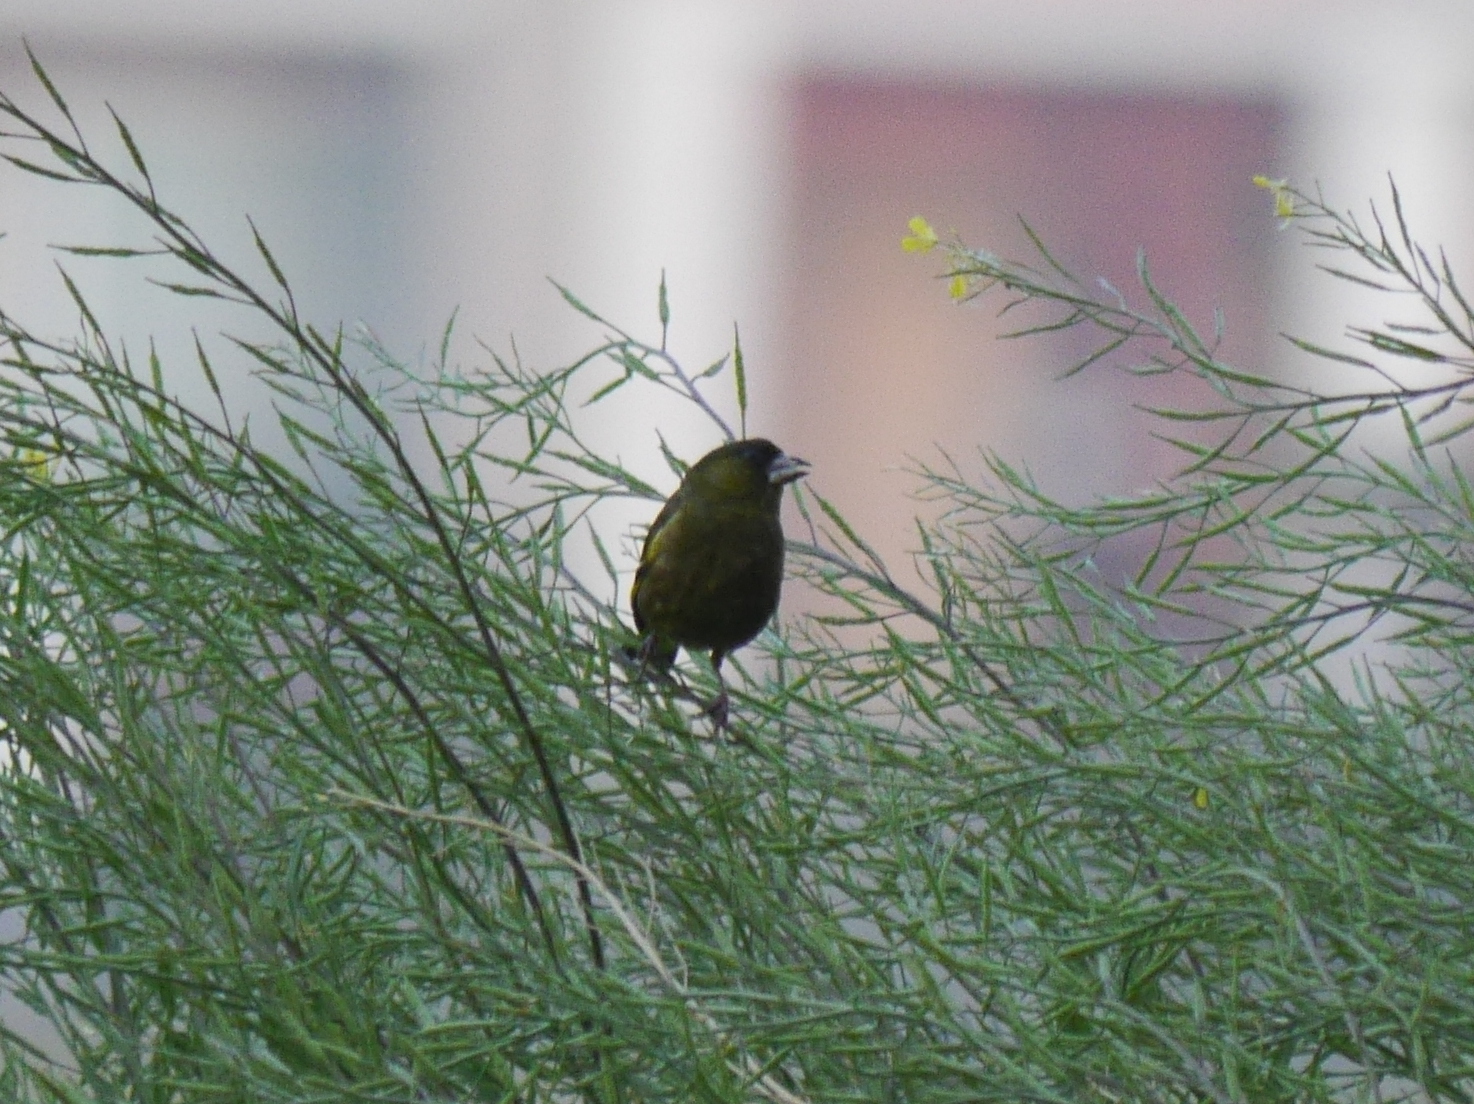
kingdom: Plantae
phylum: Tracheophyta
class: Liliopsida
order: Poales
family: Poaceae
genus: Chloris
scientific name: Chloris sinica
